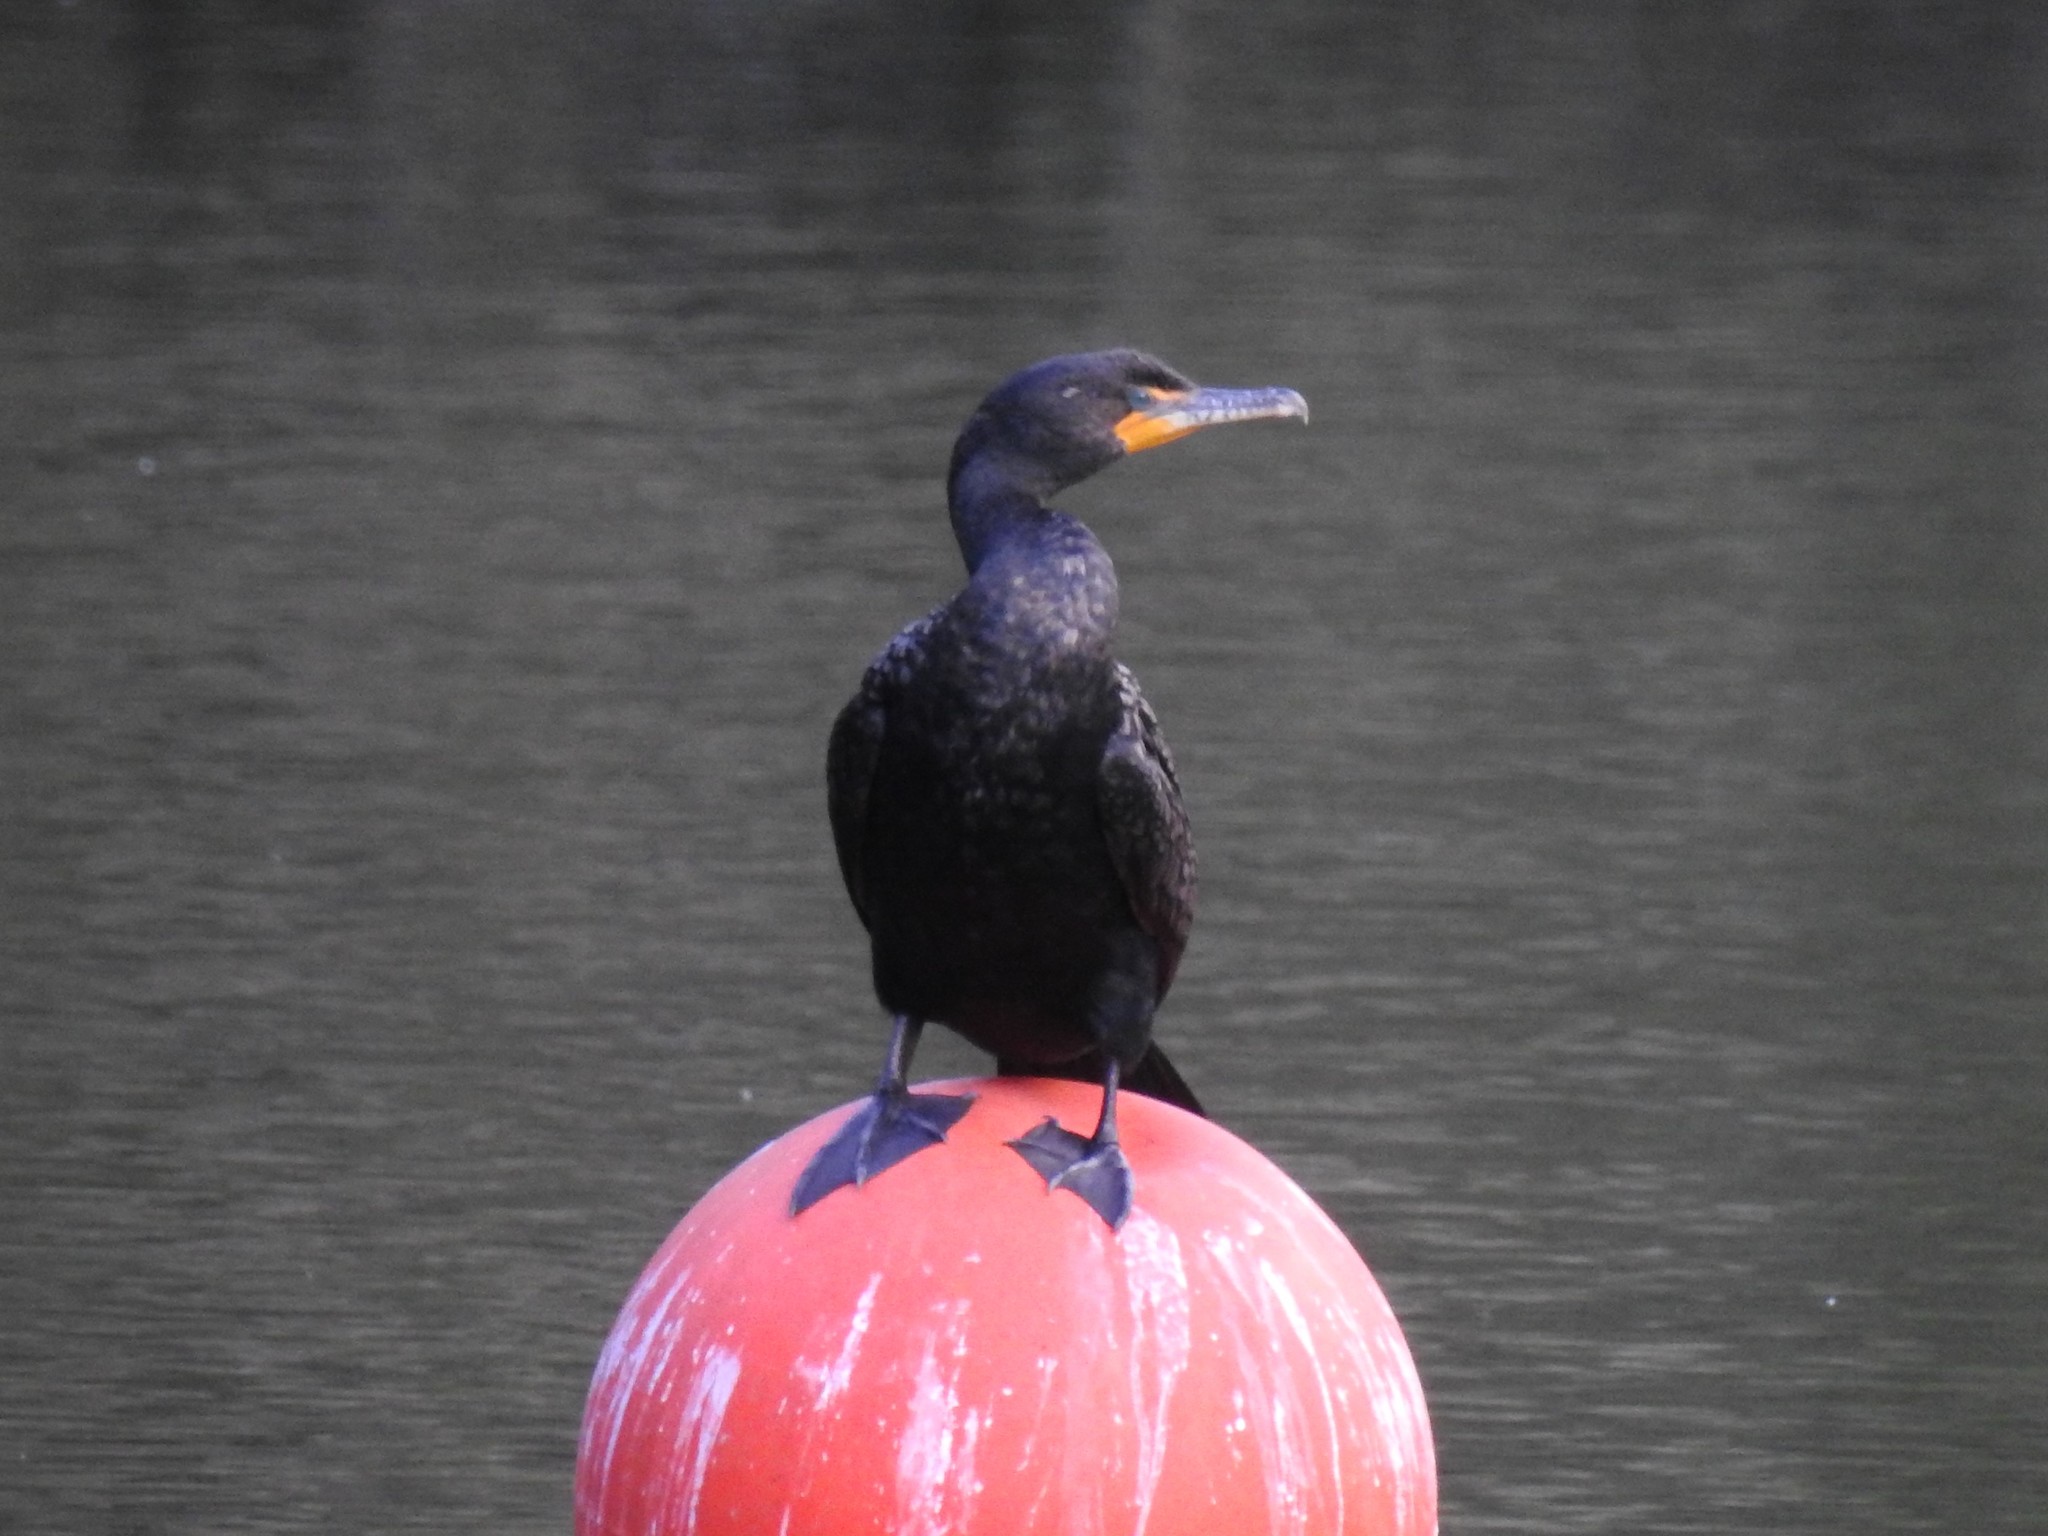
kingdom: Animalia
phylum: Chordata
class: Aves
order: Suliformes
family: Phalacrocoracidae
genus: Phalacrocorax
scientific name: Phalacrocorax auritus
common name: Double-crested cormorant
